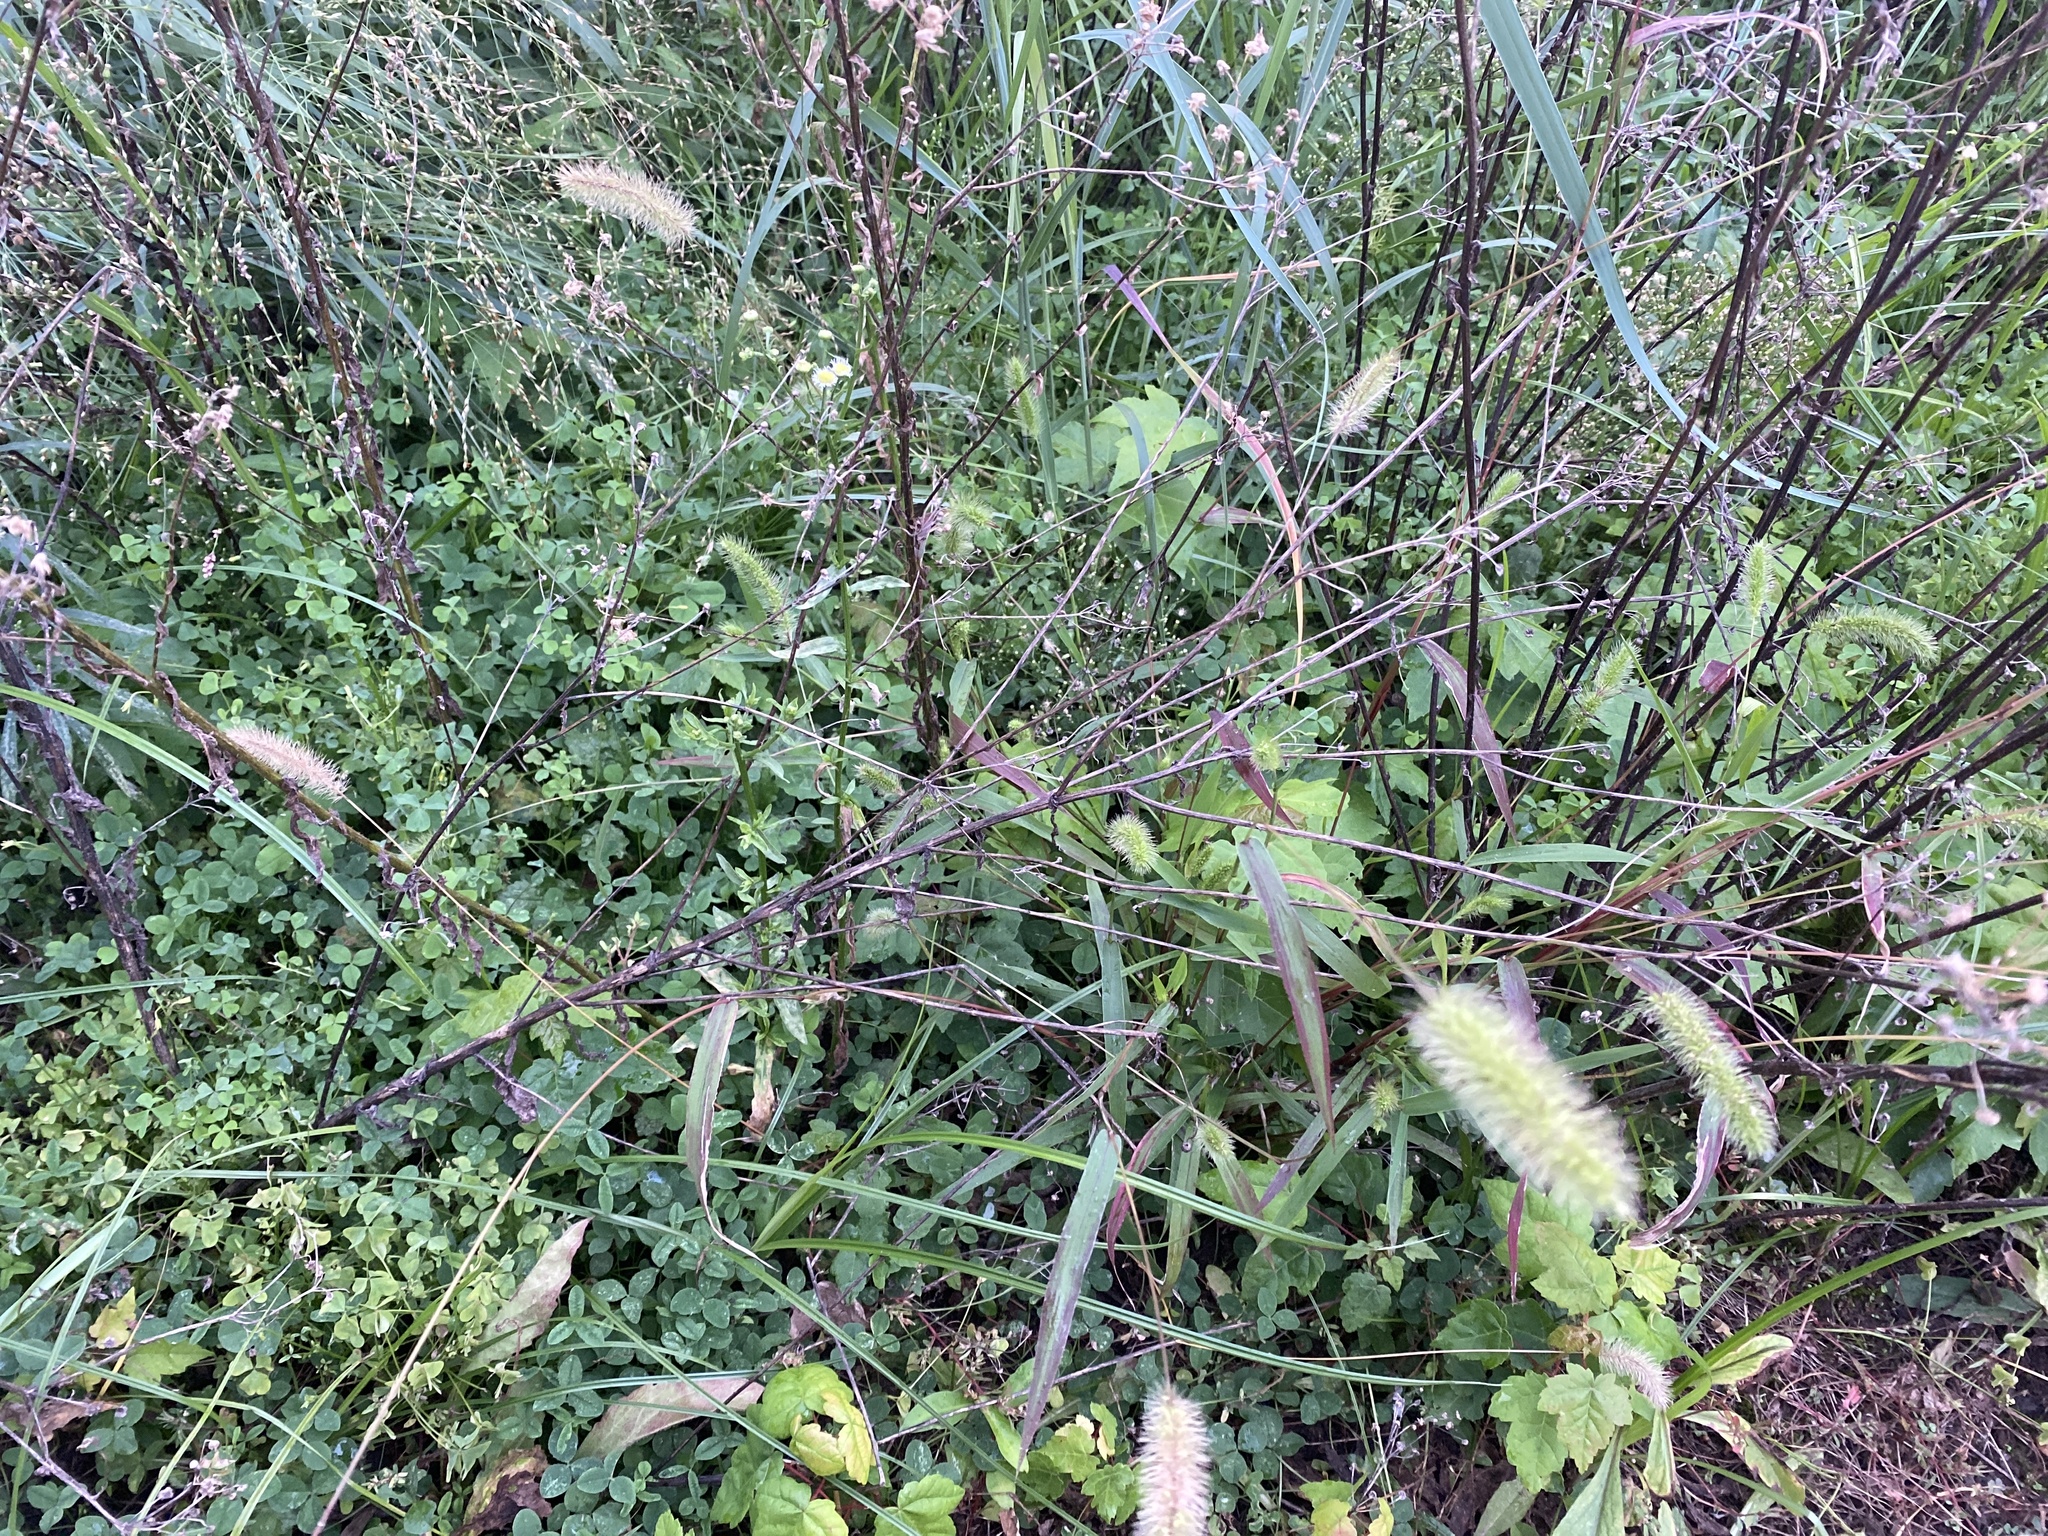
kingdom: Plantae
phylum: Tracheophyta
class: Liliopsida
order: Poales
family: Poaceae
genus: Setaria
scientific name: Setaria viridis
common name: Green bristlegrass
